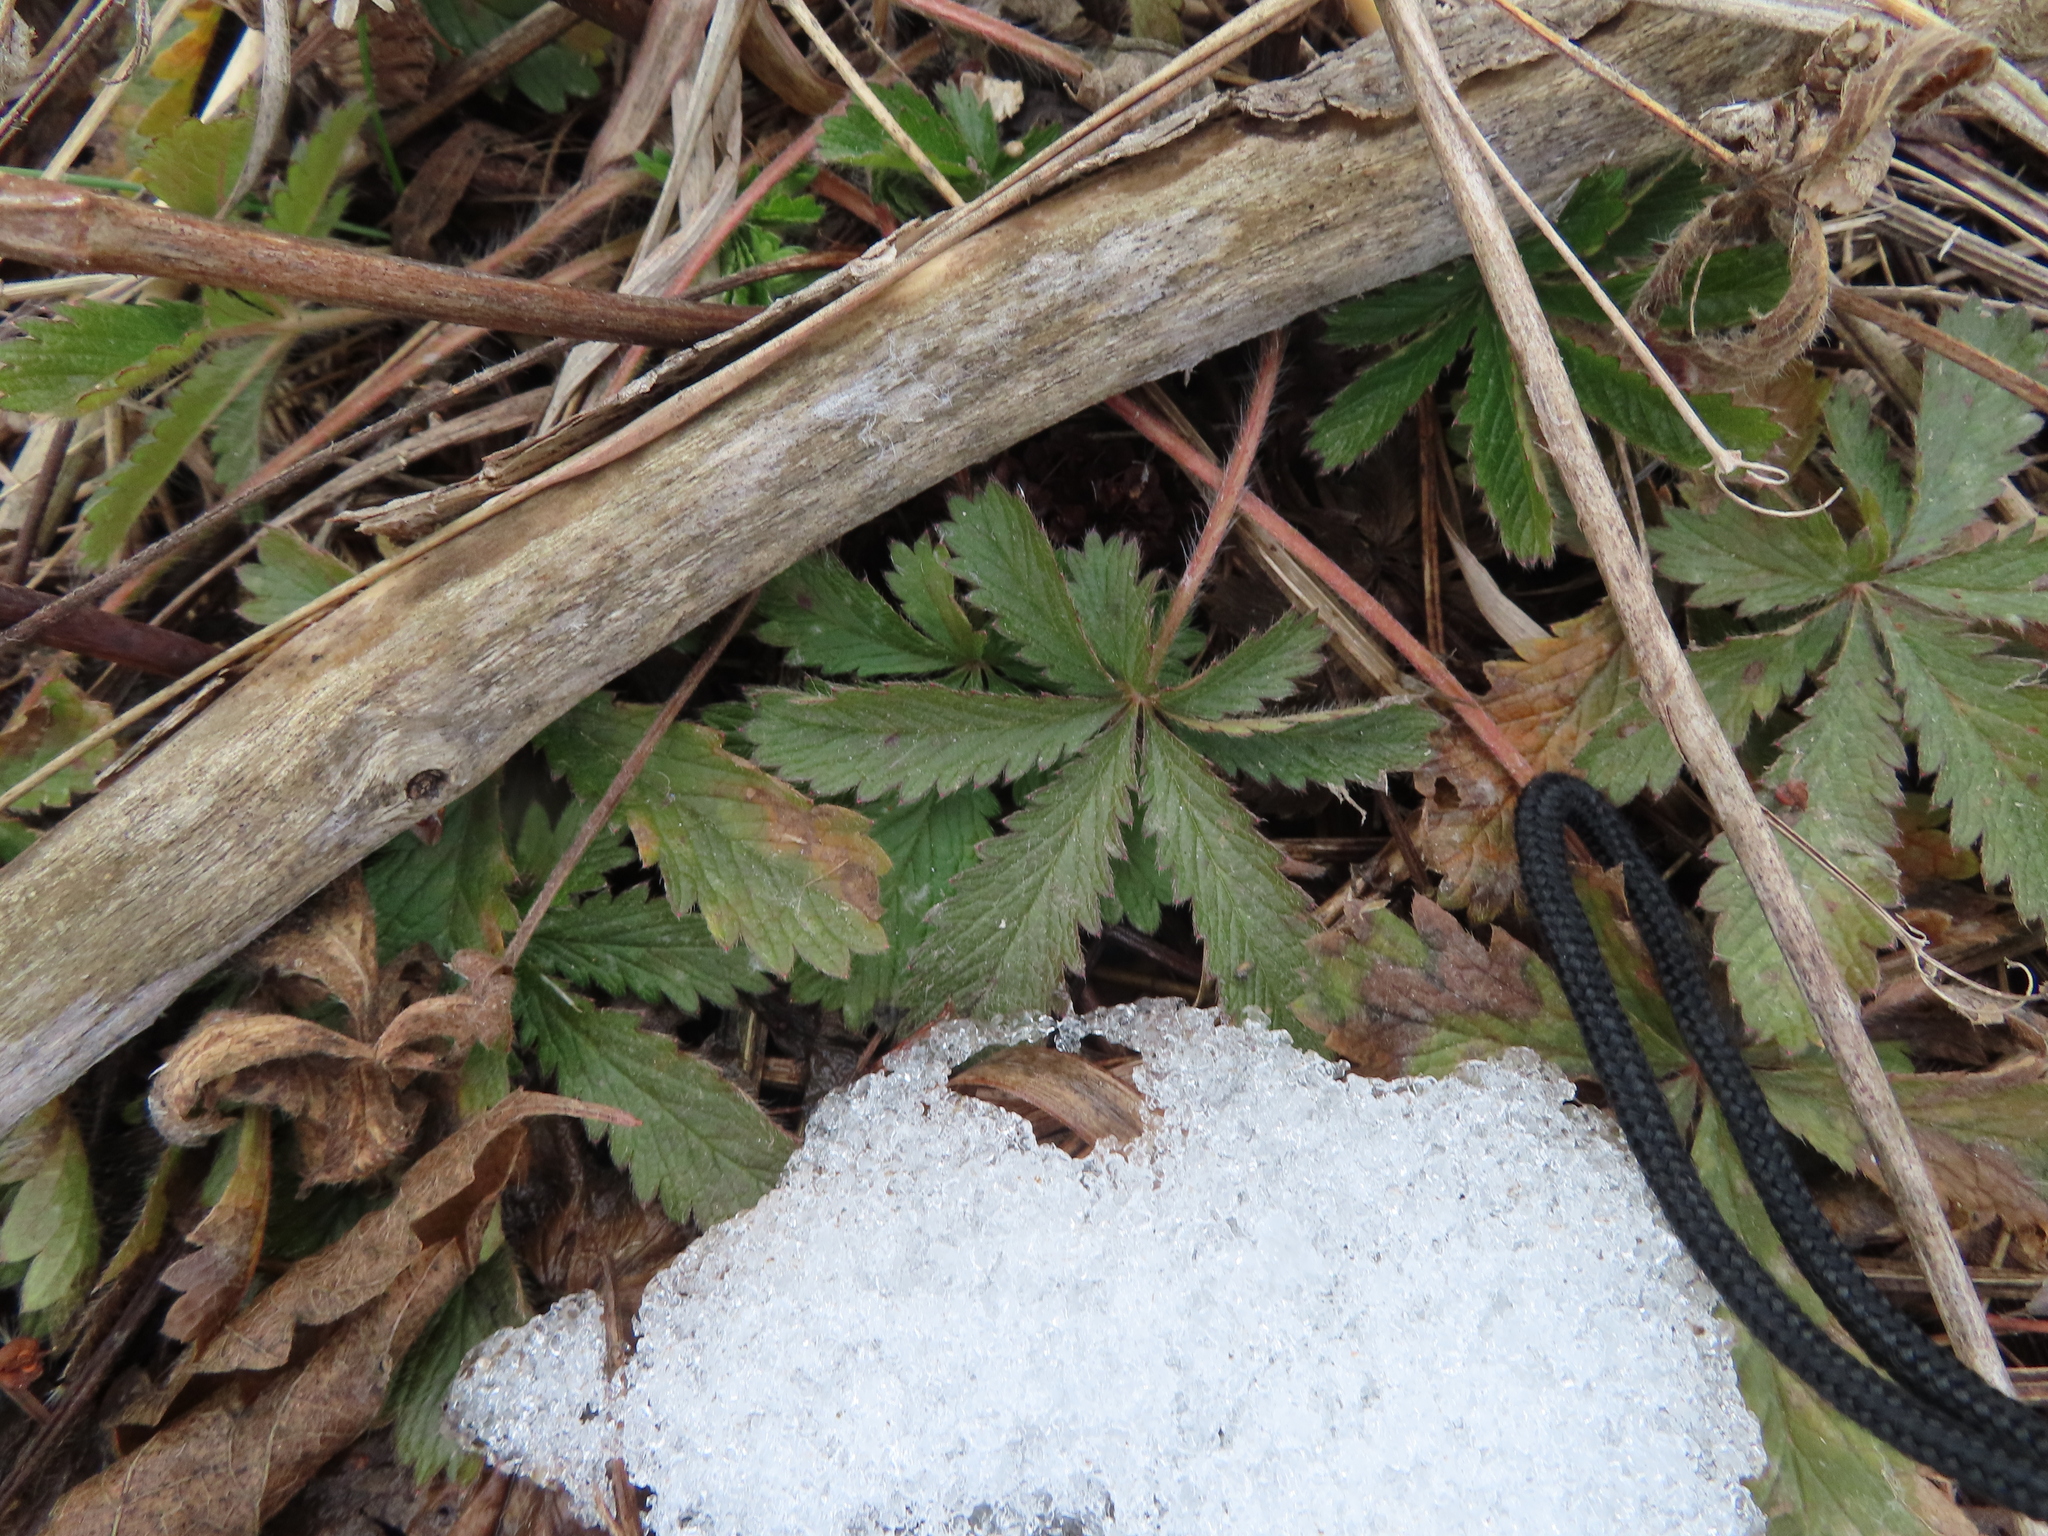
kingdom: Plantae
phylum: Tracheophyta
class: Magnoliopsida
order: Rosales
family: Rosaceae
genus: Potentilla
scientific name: Potentilla recta
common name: Sulphur cinquefoil
